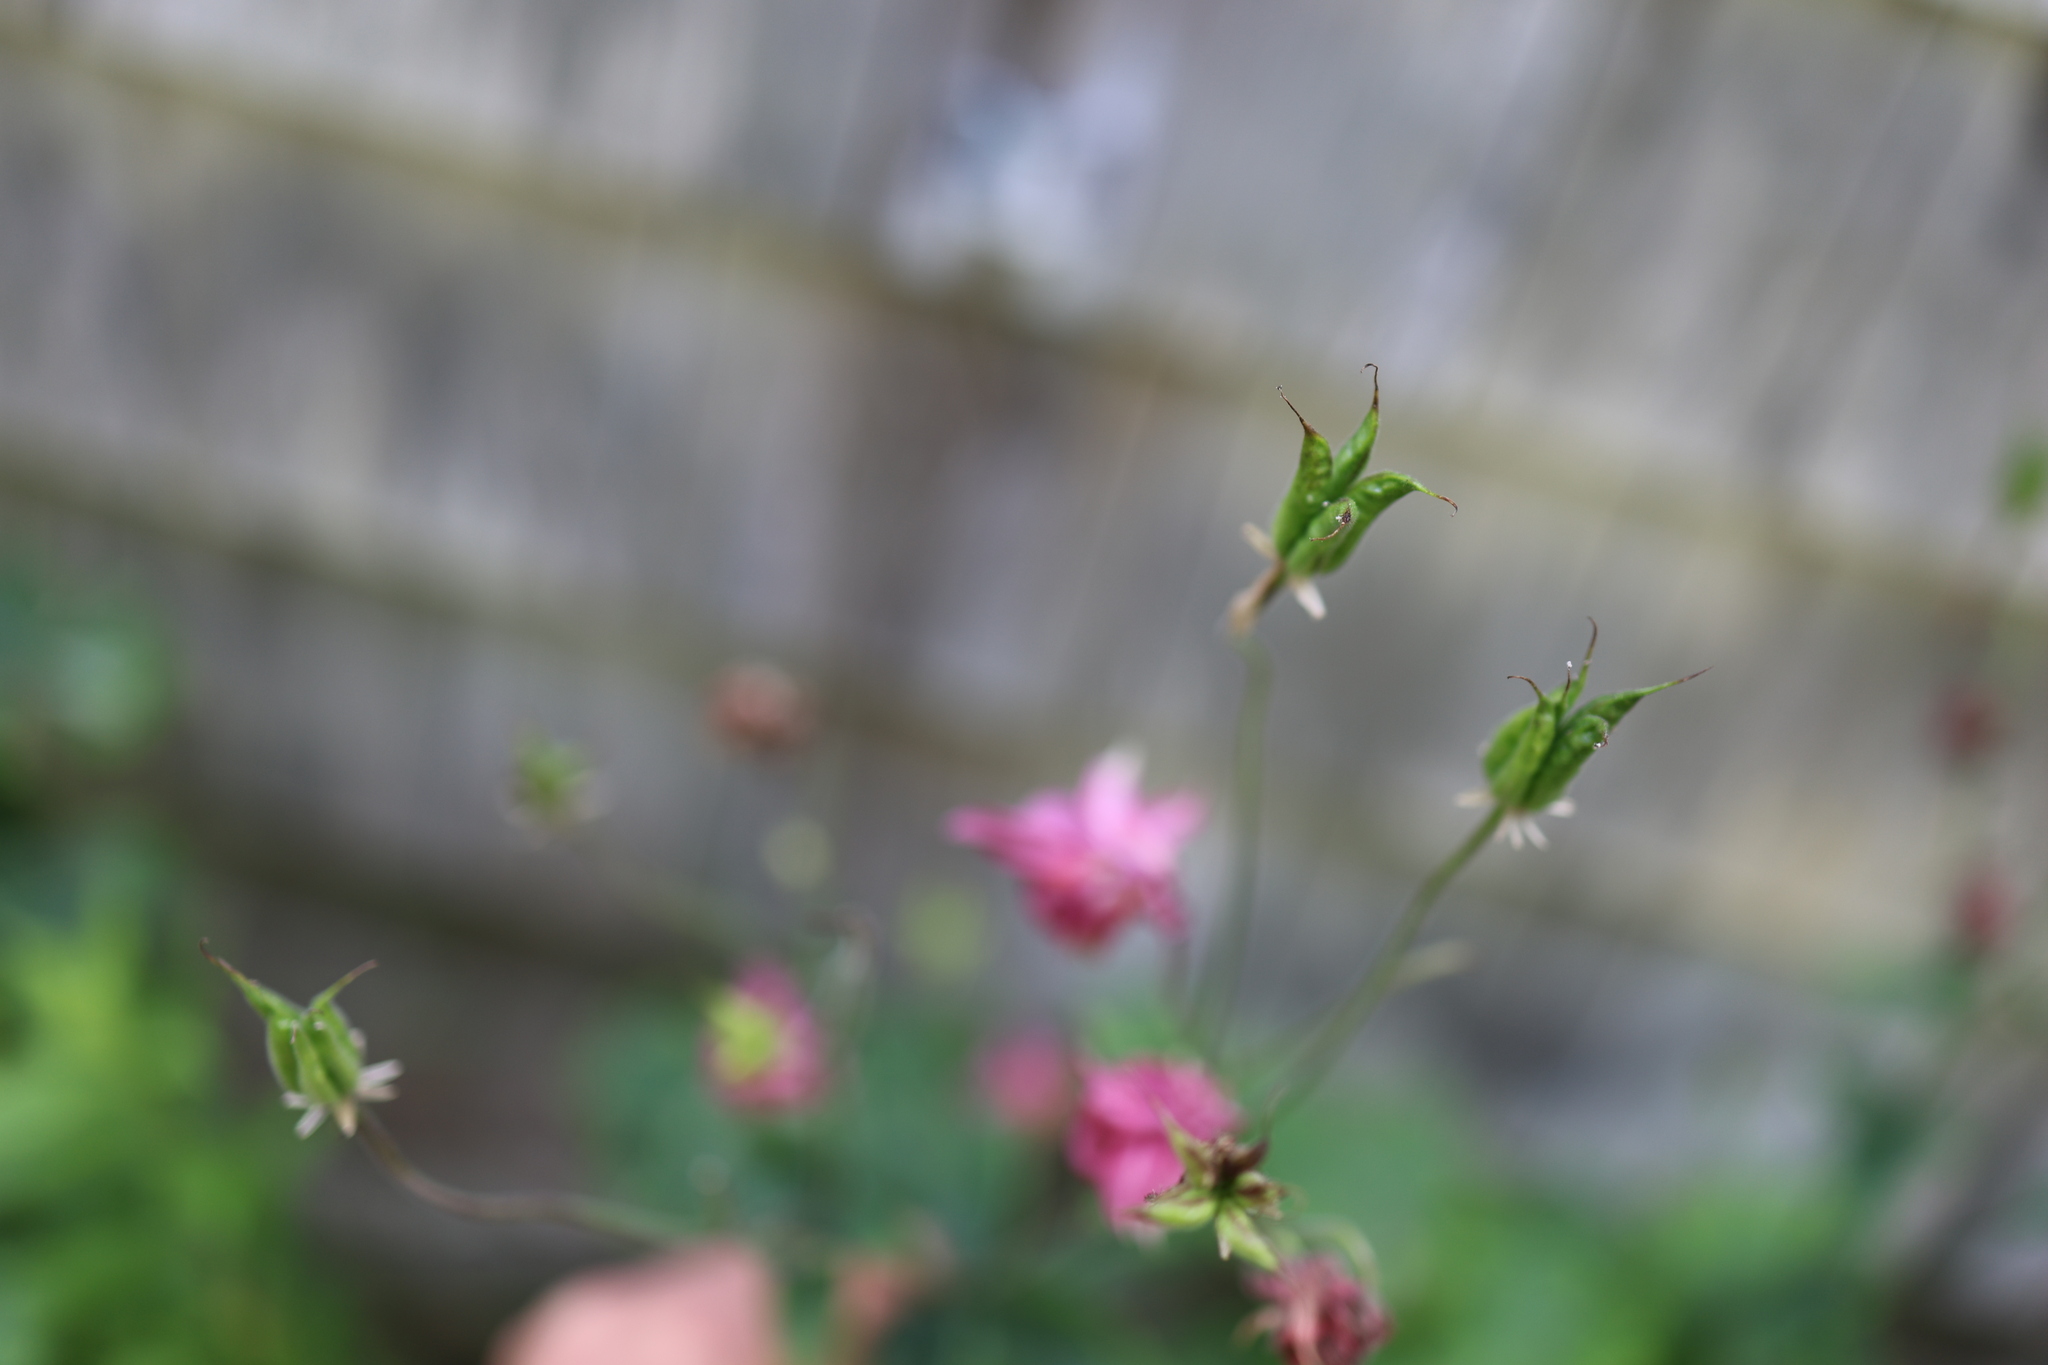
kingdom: Plantae
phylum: Tracheophyta
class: Magnoliopsida
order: Ranunculales
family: Ranunculaceae
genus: Aquilegia
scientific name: Aquilegia vulgaris
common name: Columbine
